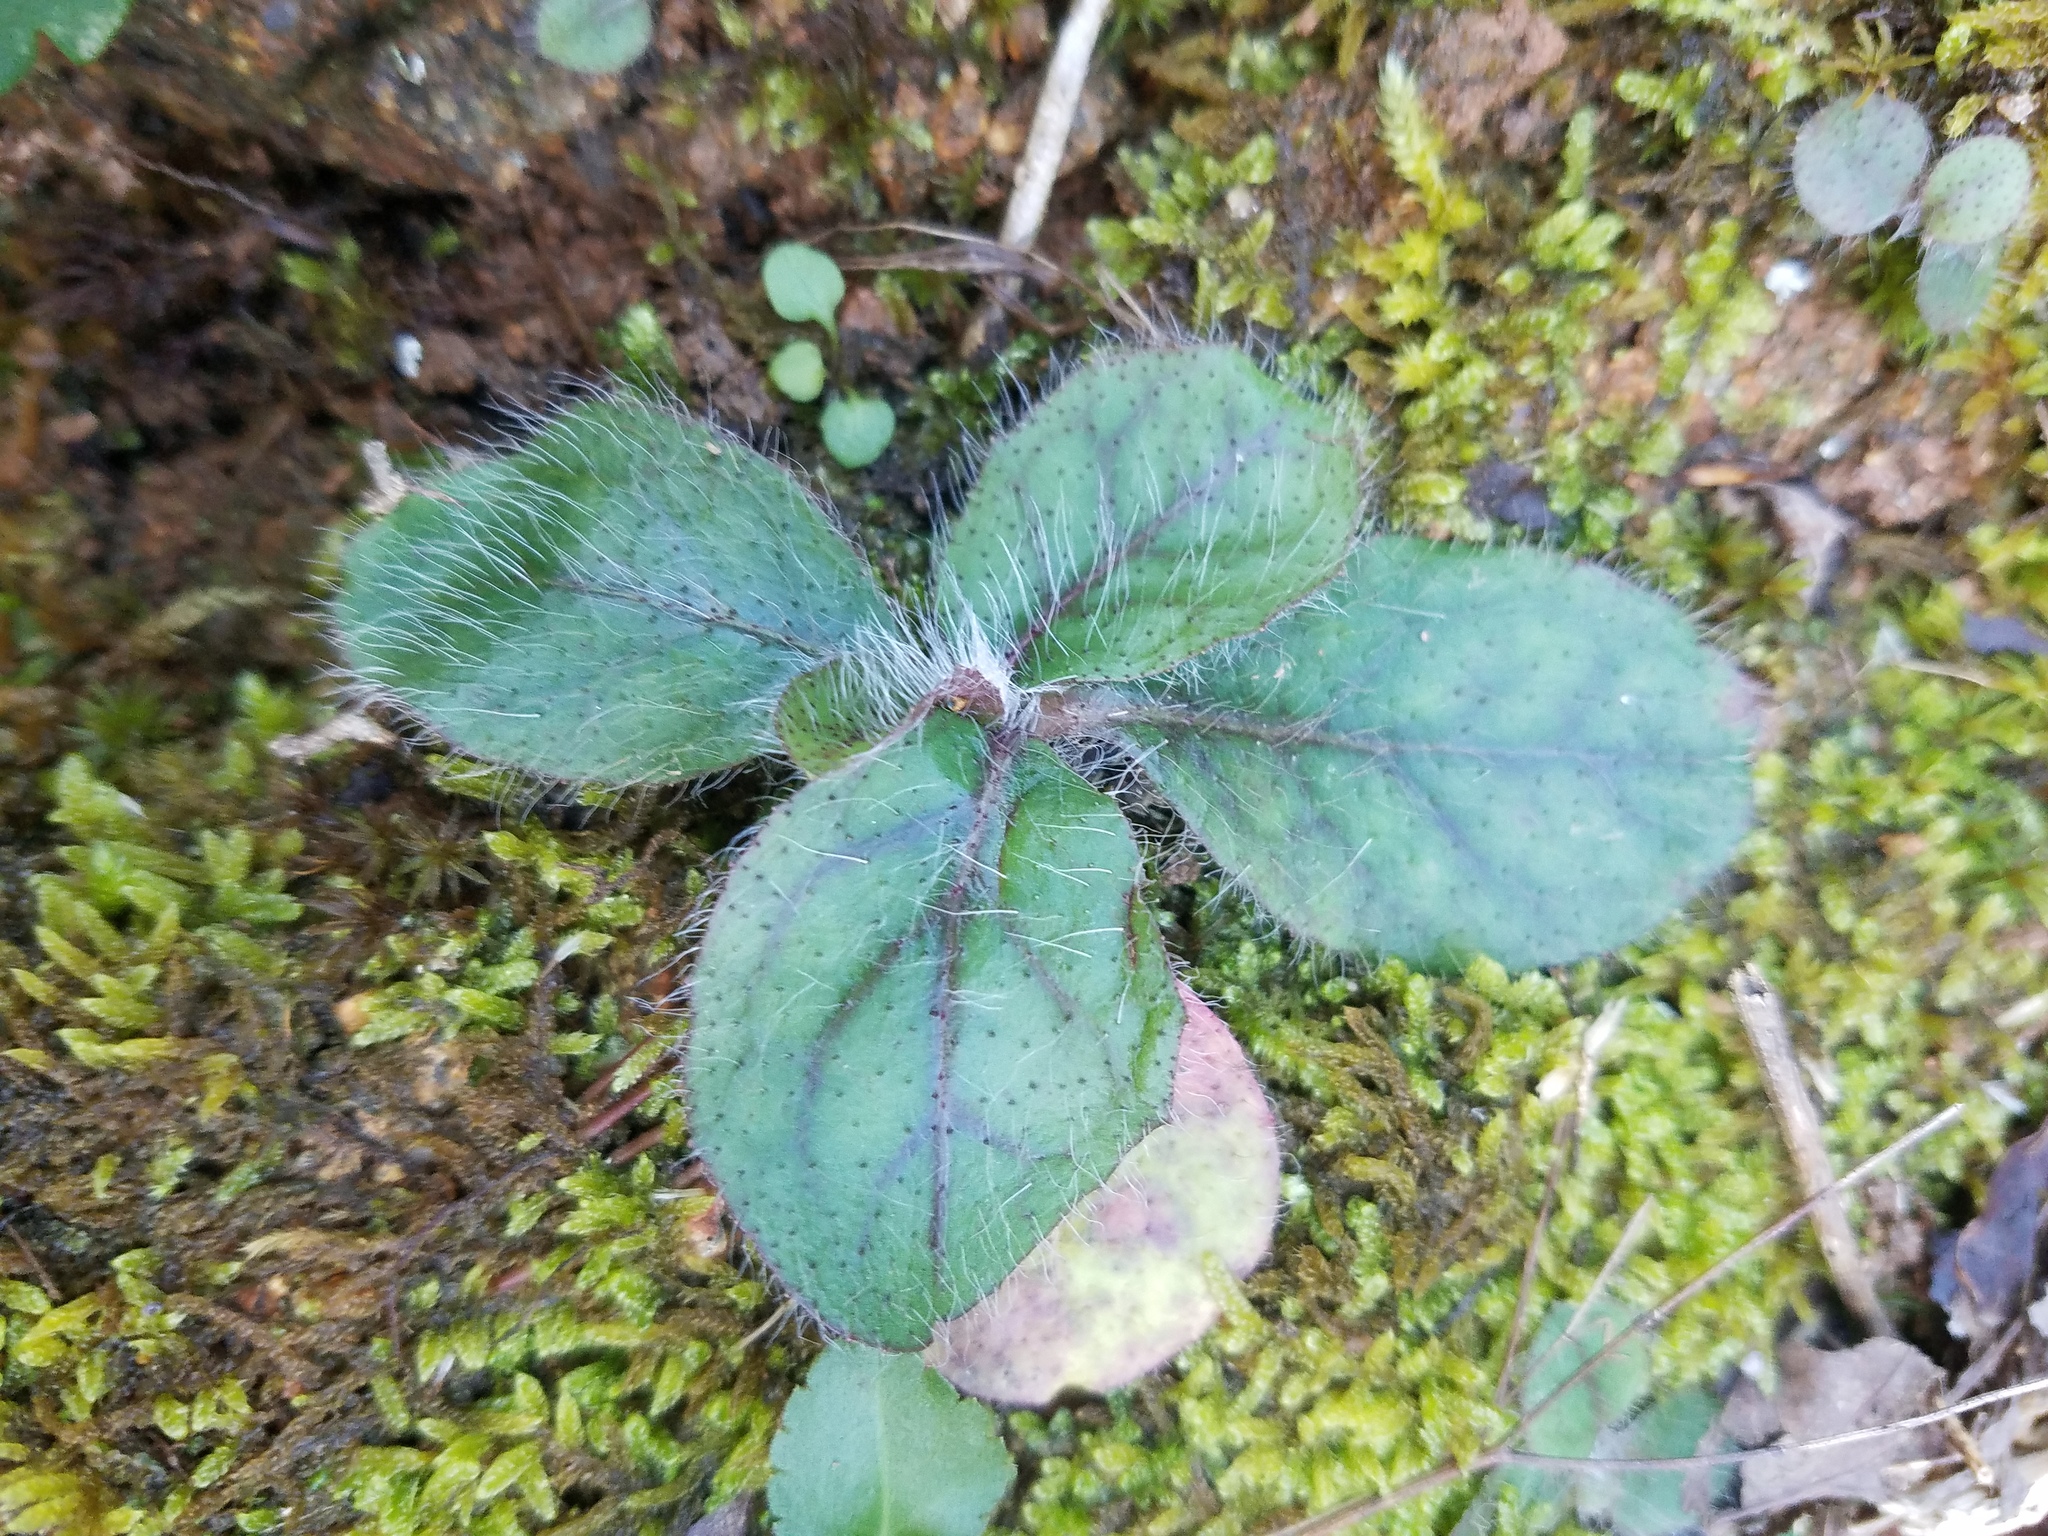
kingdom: Plantae
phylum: Tracheophyta
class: Magnoliopsida
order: Asterales
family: Asteraceae
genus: Hieracium
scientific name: Hieracium venosum
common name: Rattlesnake hawkweed
